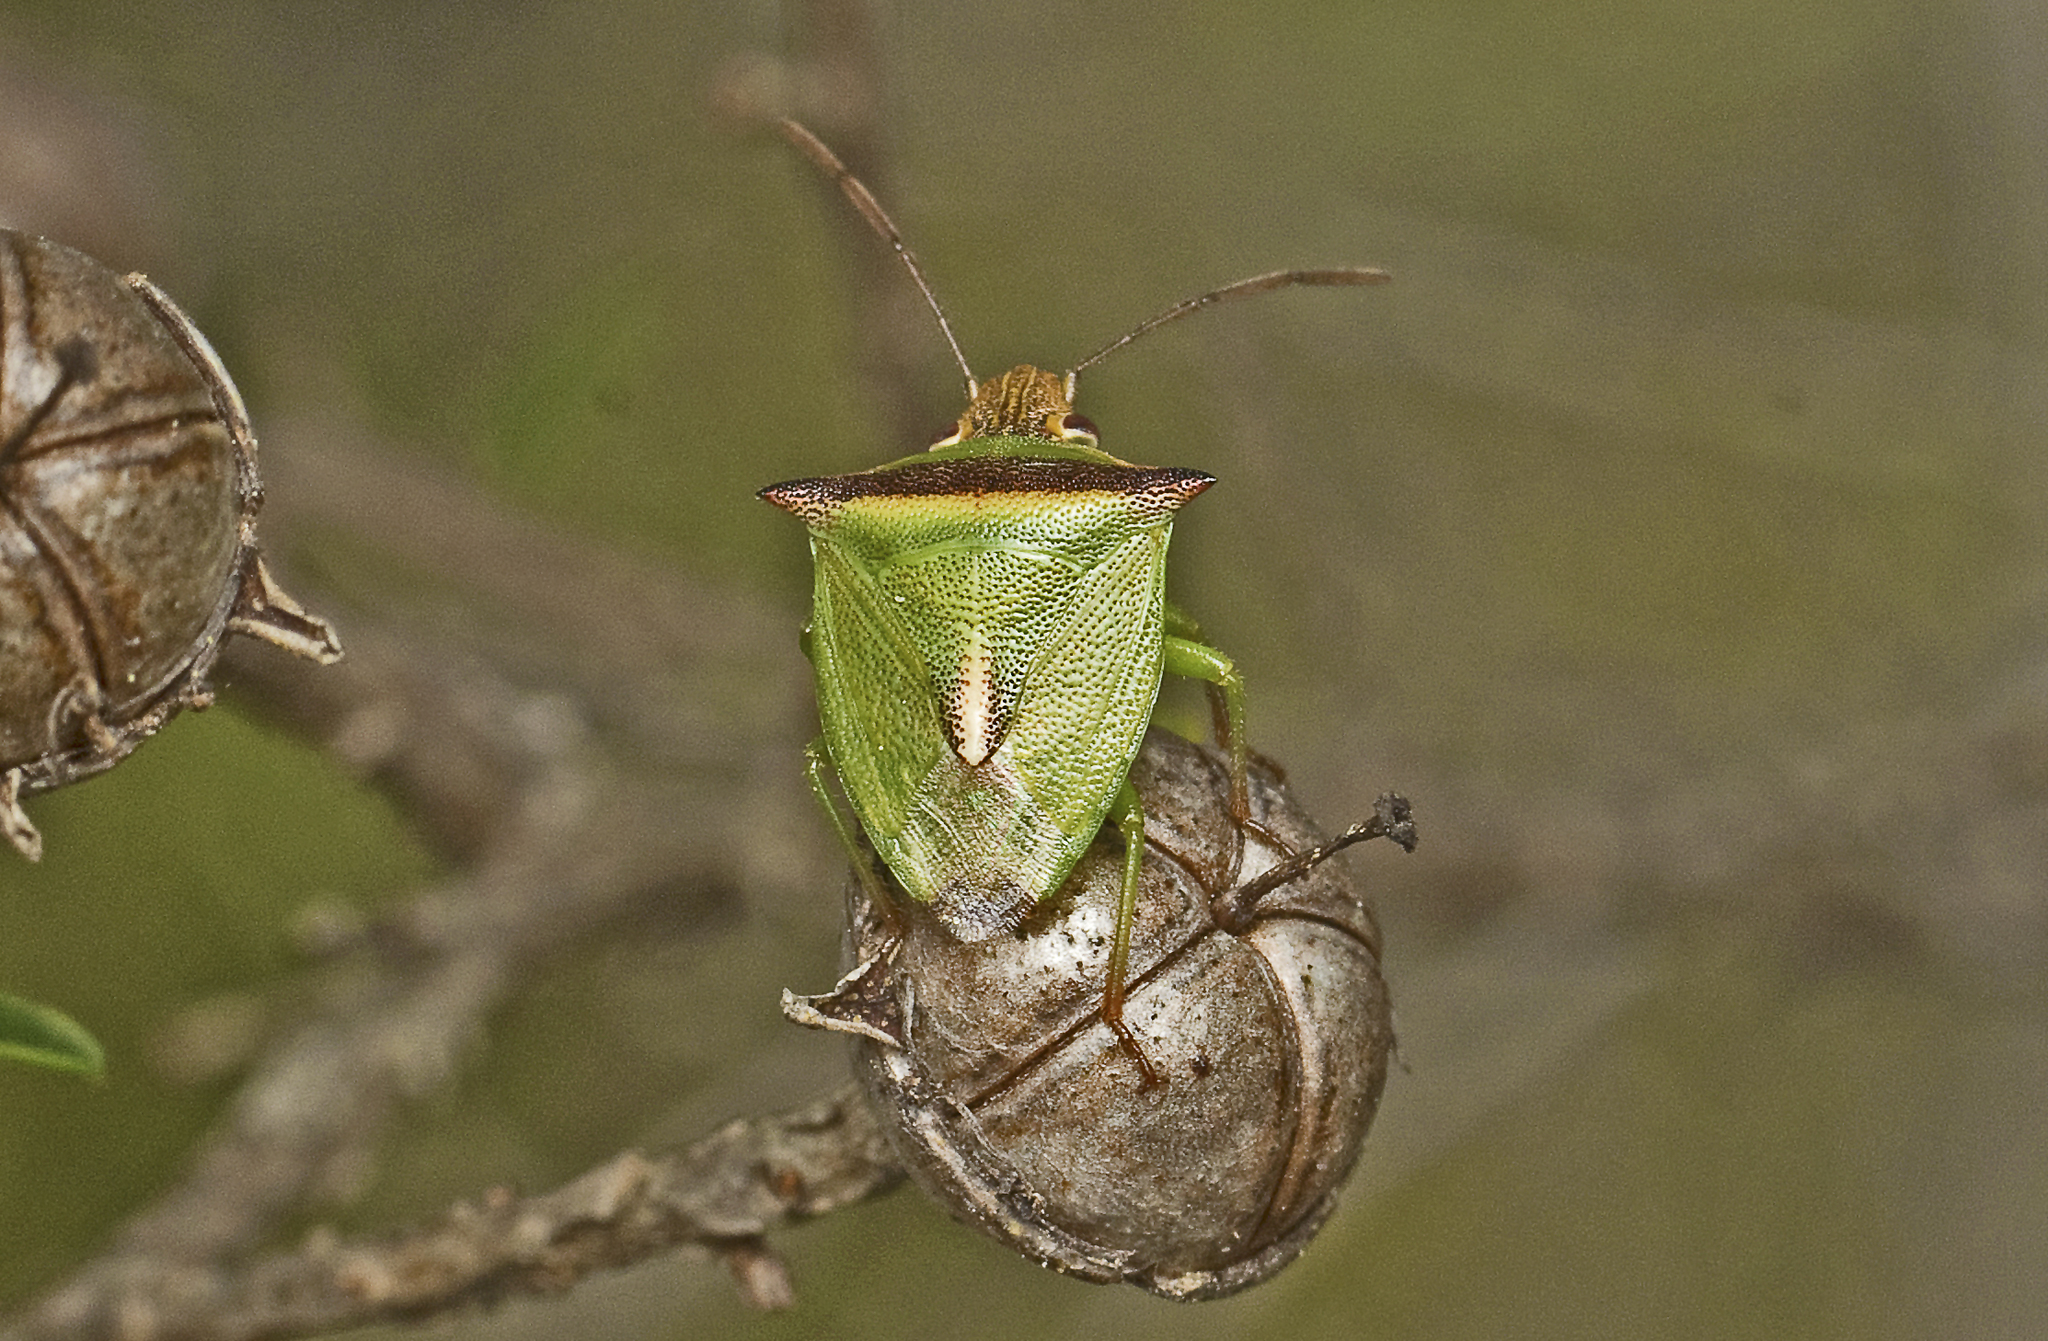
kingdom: Animalia
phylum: Arthropoda
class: Insecta
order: Hemiptera
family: Pentatomidae
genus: Cuspicona
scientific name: Cuspicona
